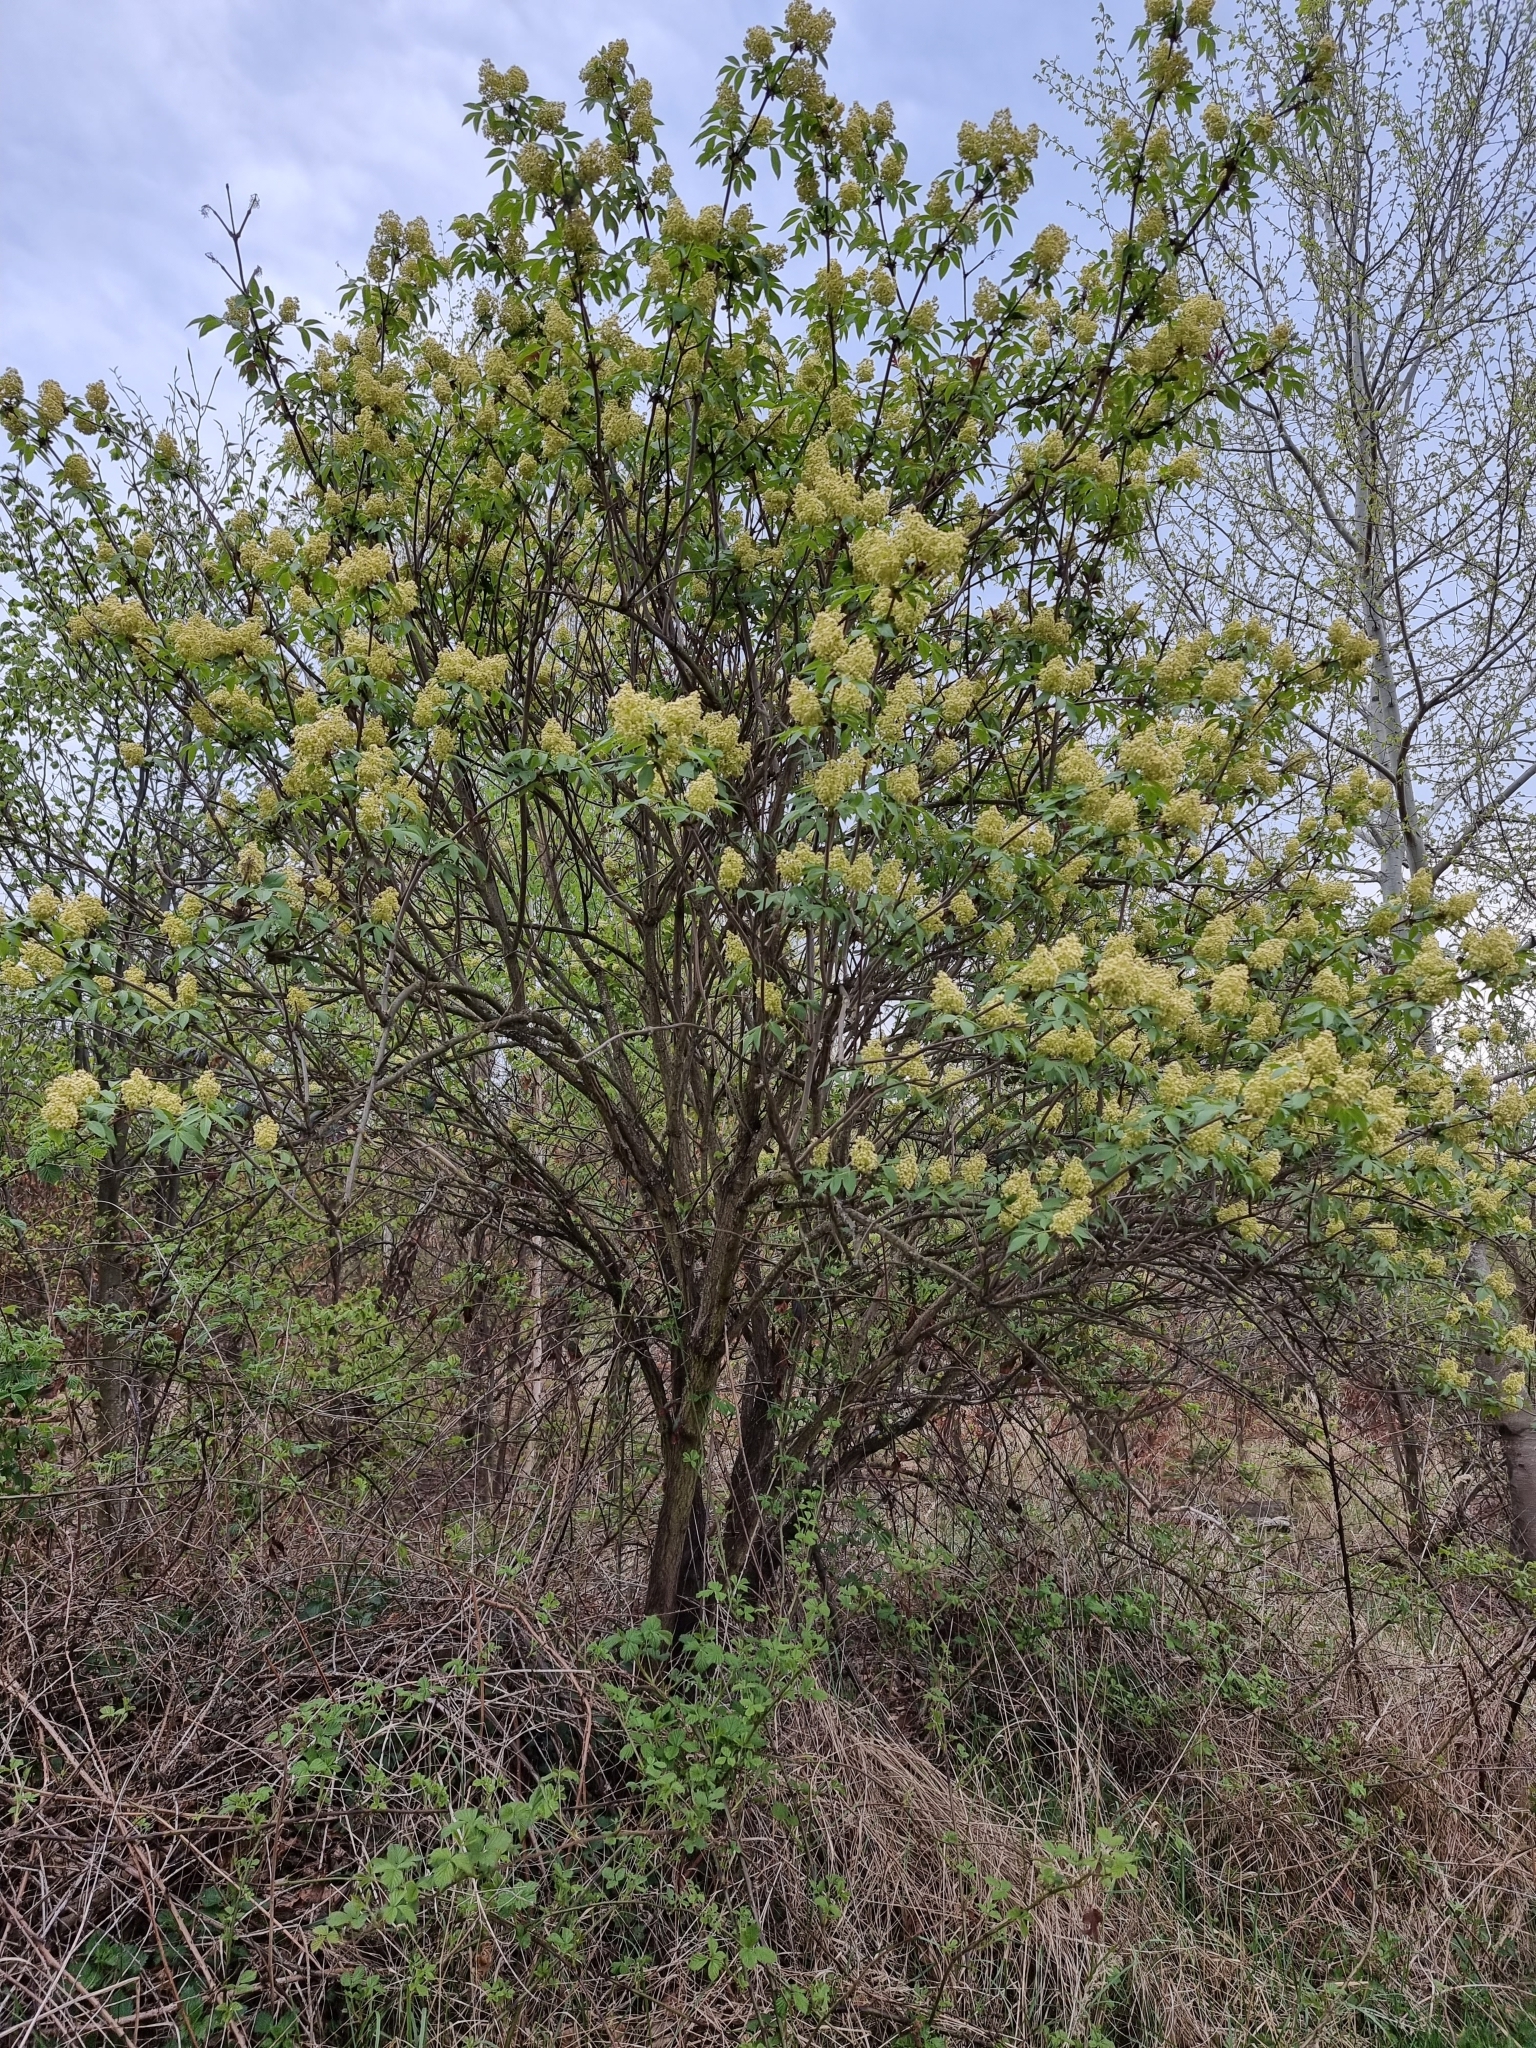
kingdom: Plantae
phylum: Tracheophyta
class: Magnoliopsida
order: Dipsacales
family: Viburnaceae
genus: Sambucus
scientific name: Sambucus racemosa
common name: Red-berried elder
